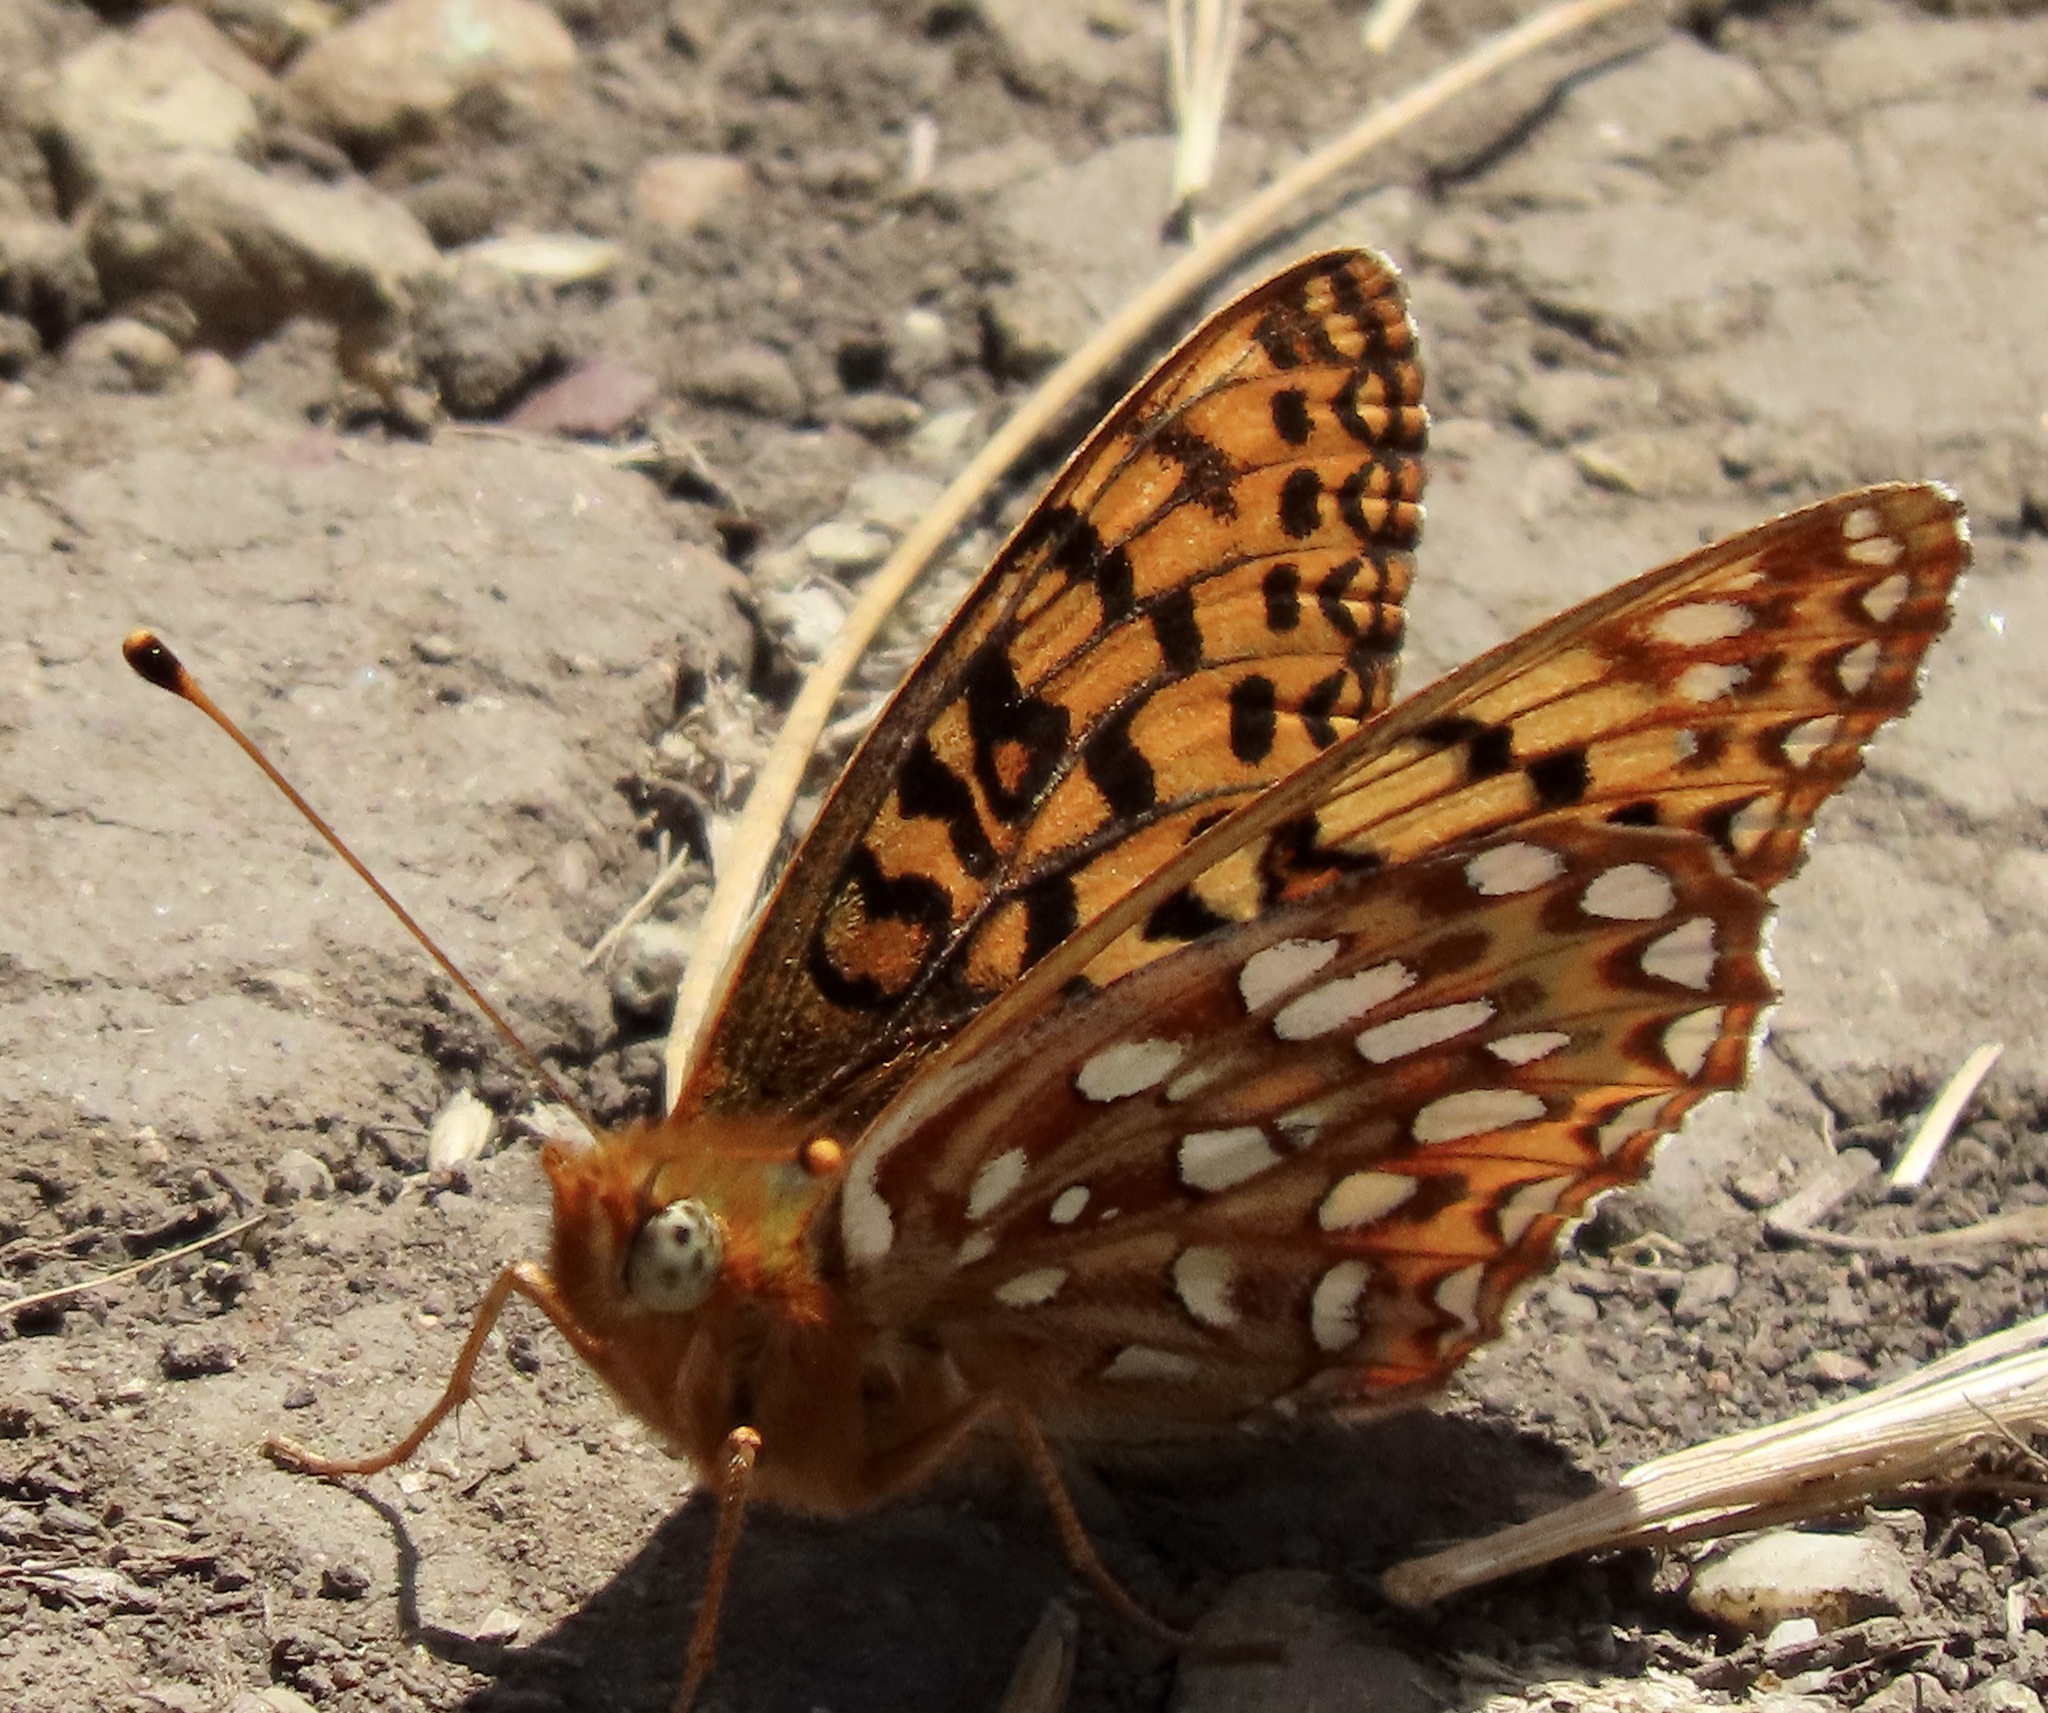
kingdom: Animalia
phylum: Arthropoda
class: Insecta
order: Lepidoptera
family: Nymphalidae
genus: Speyeria
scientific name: Speyeria zerene
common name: Zerene fritillary
